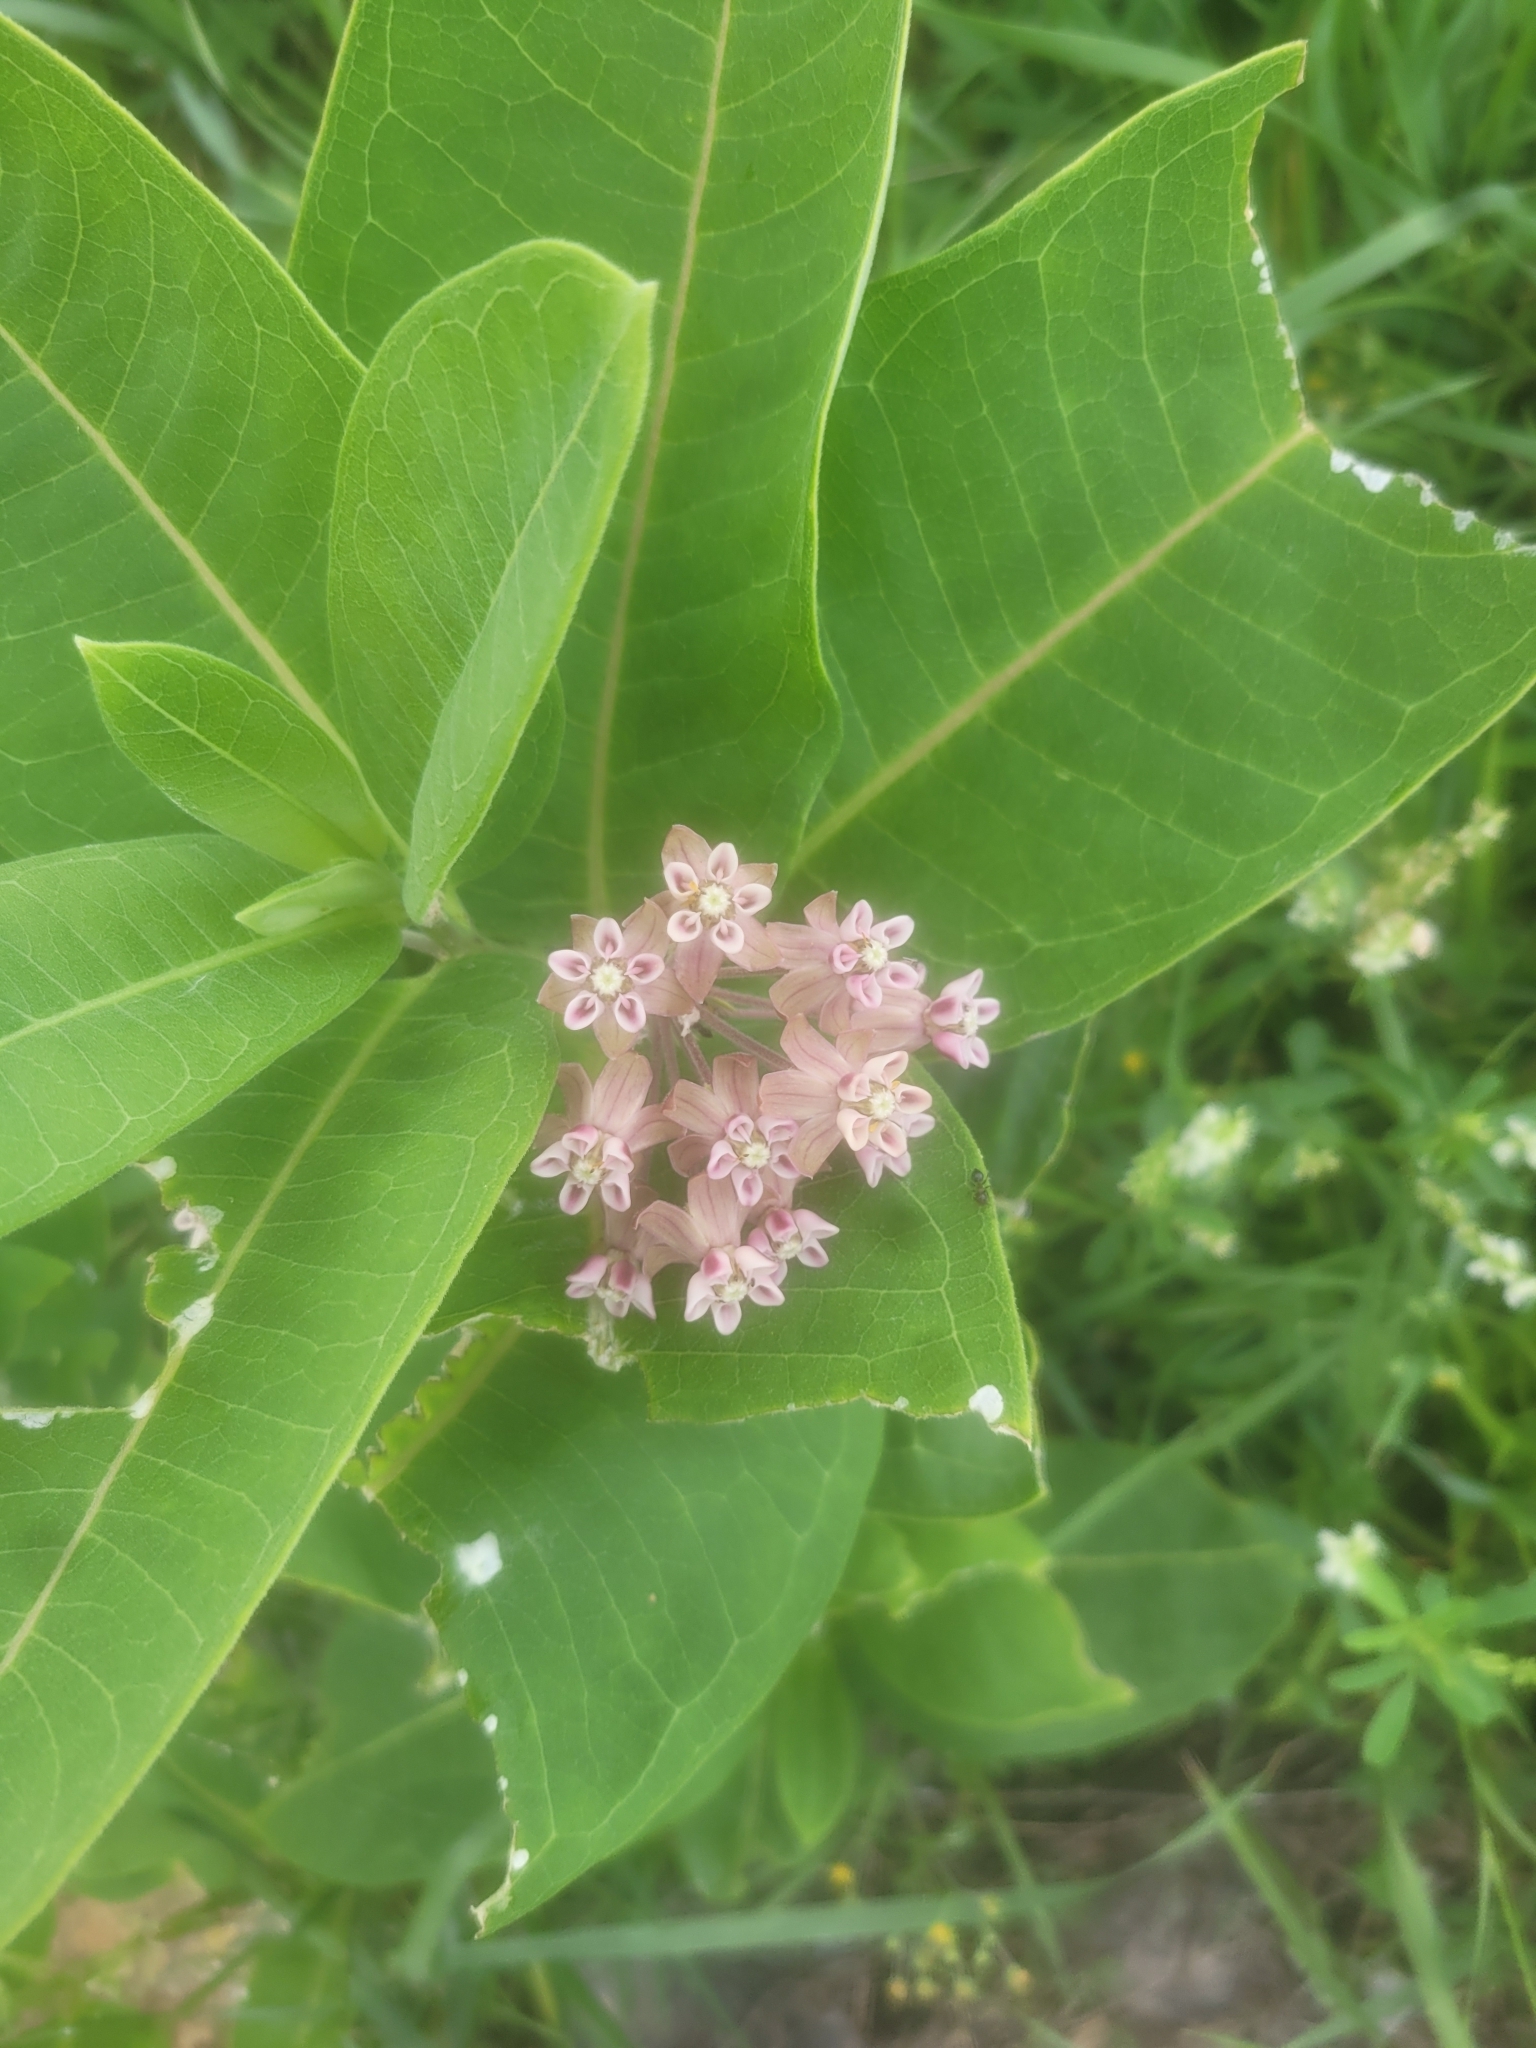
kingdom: Plantae
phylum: Tracheophyta
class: Magnoliopsida
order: Gentianales
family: Apocynaceae
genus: Asclepias
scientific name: Asclepias syriaca
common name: Common milkweed
